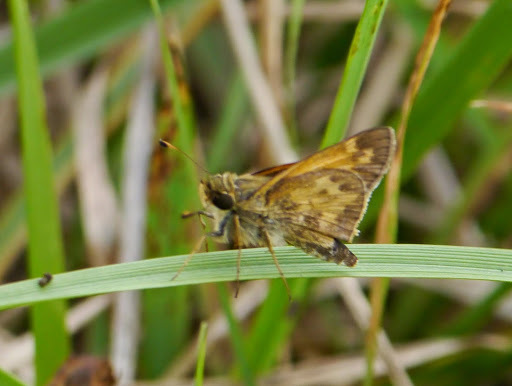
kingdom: Animalia
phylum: Arthropoda
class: Insecta
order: Lepidoptera
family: Hesperiidae
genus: Atalopedes
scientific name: Atalopedes
